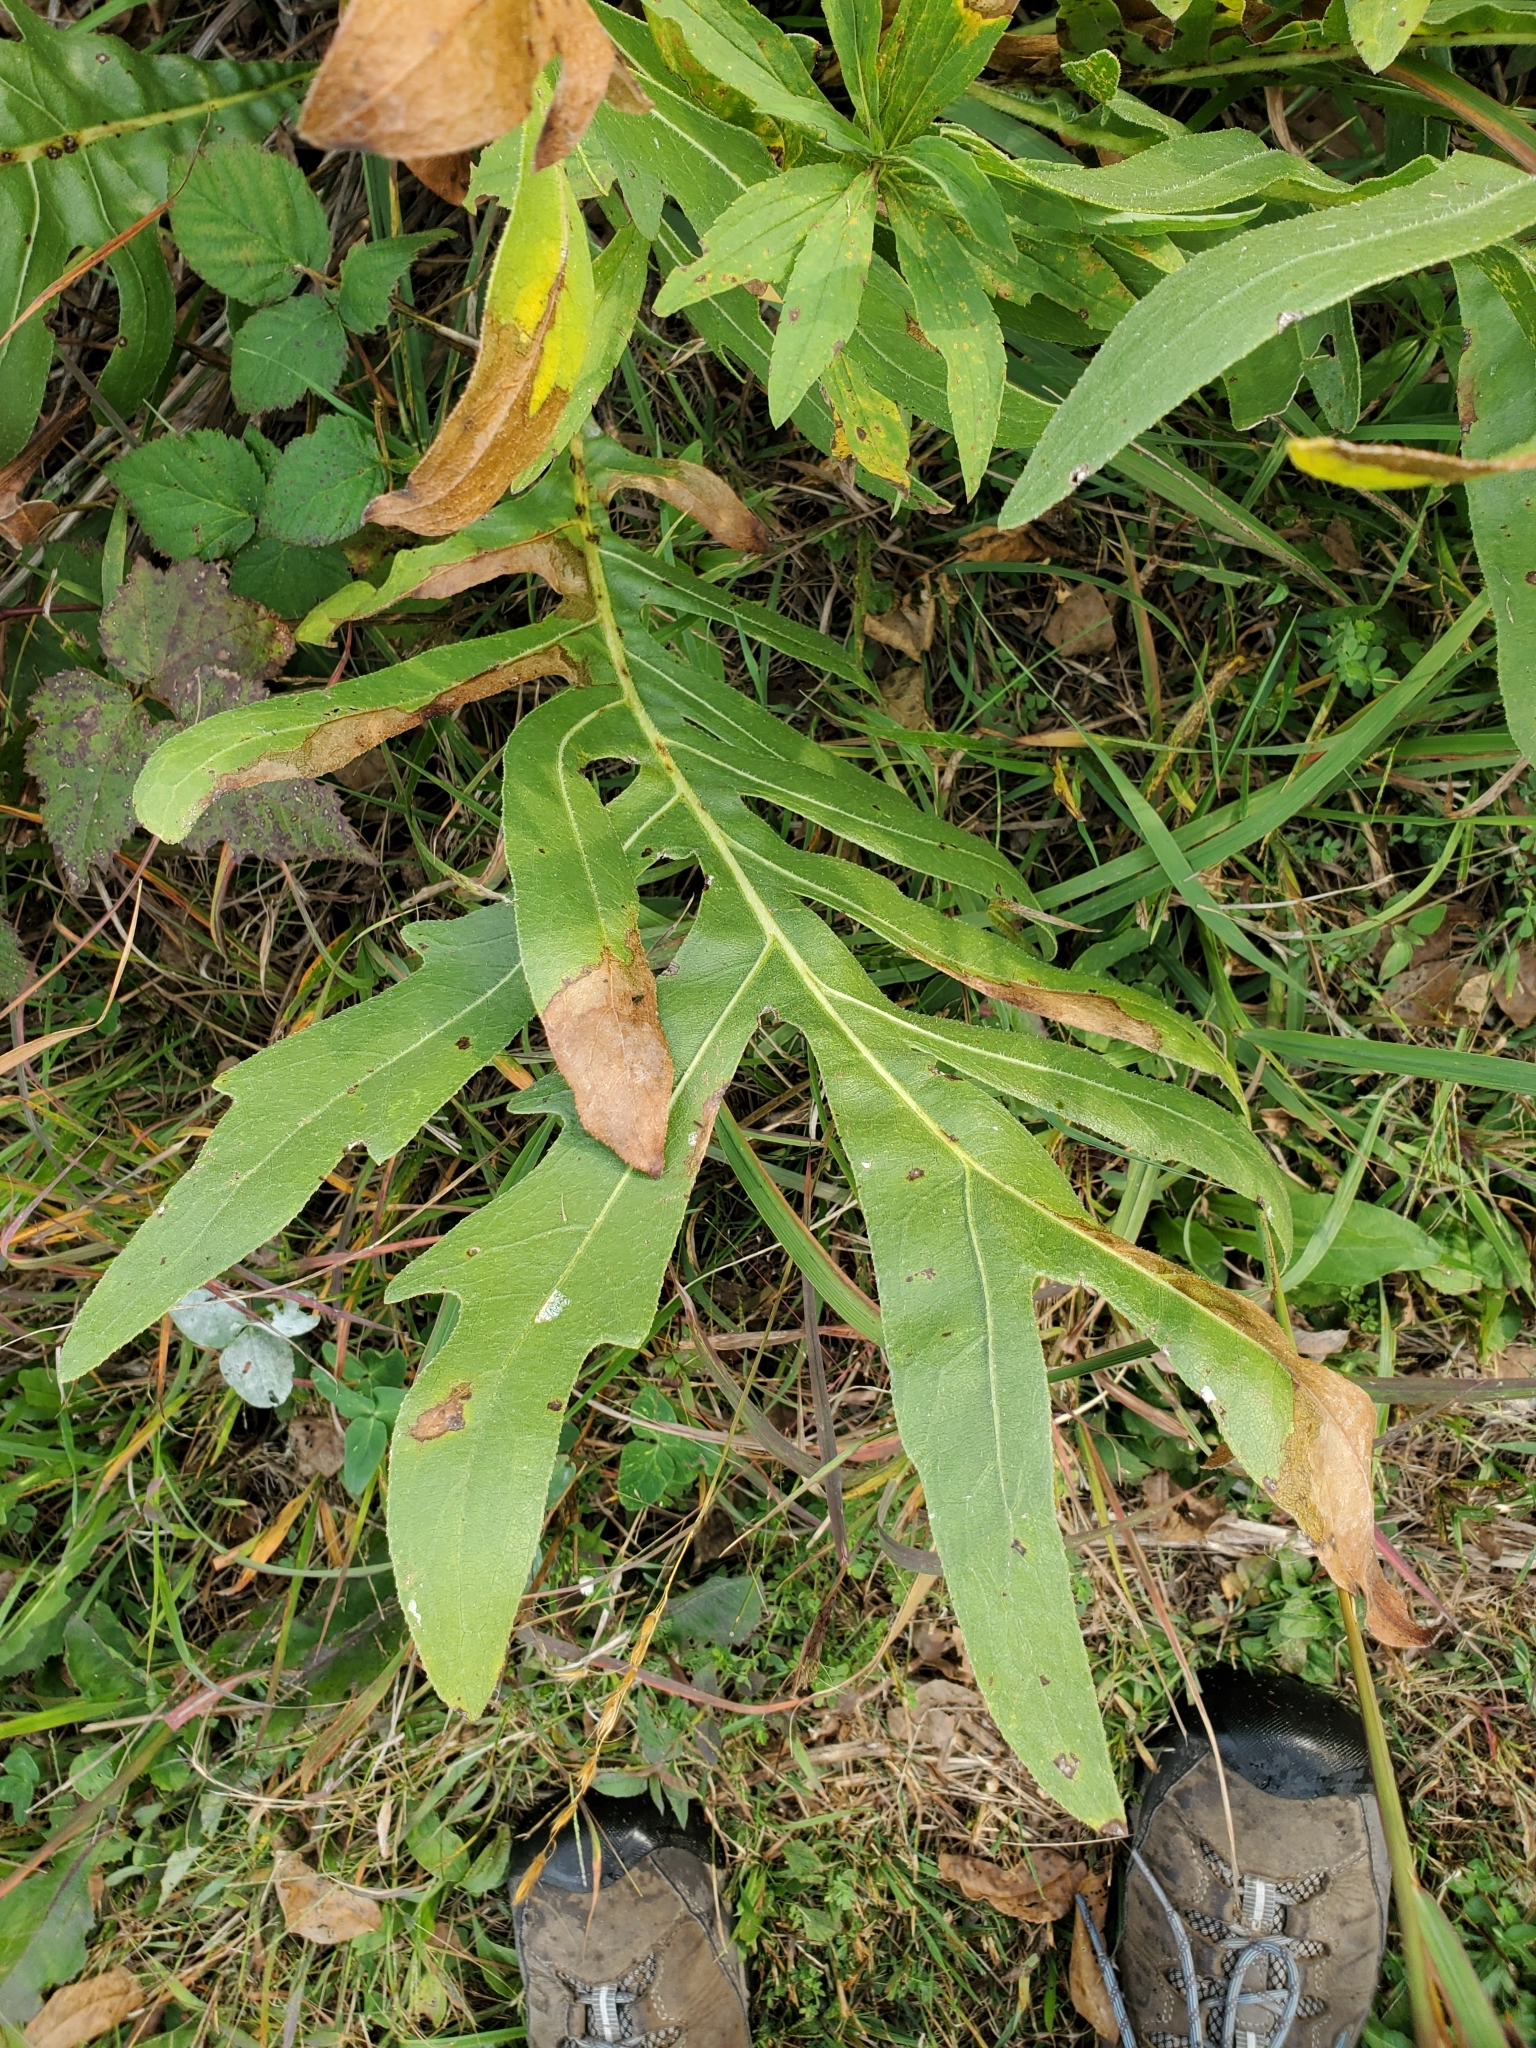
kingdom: Plantae
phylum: Tracheophyta
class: Magnoliopsida
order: Asterales
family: Asteraceae
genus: Silphium
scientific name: Silphium laciniatum
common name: Polarplant
